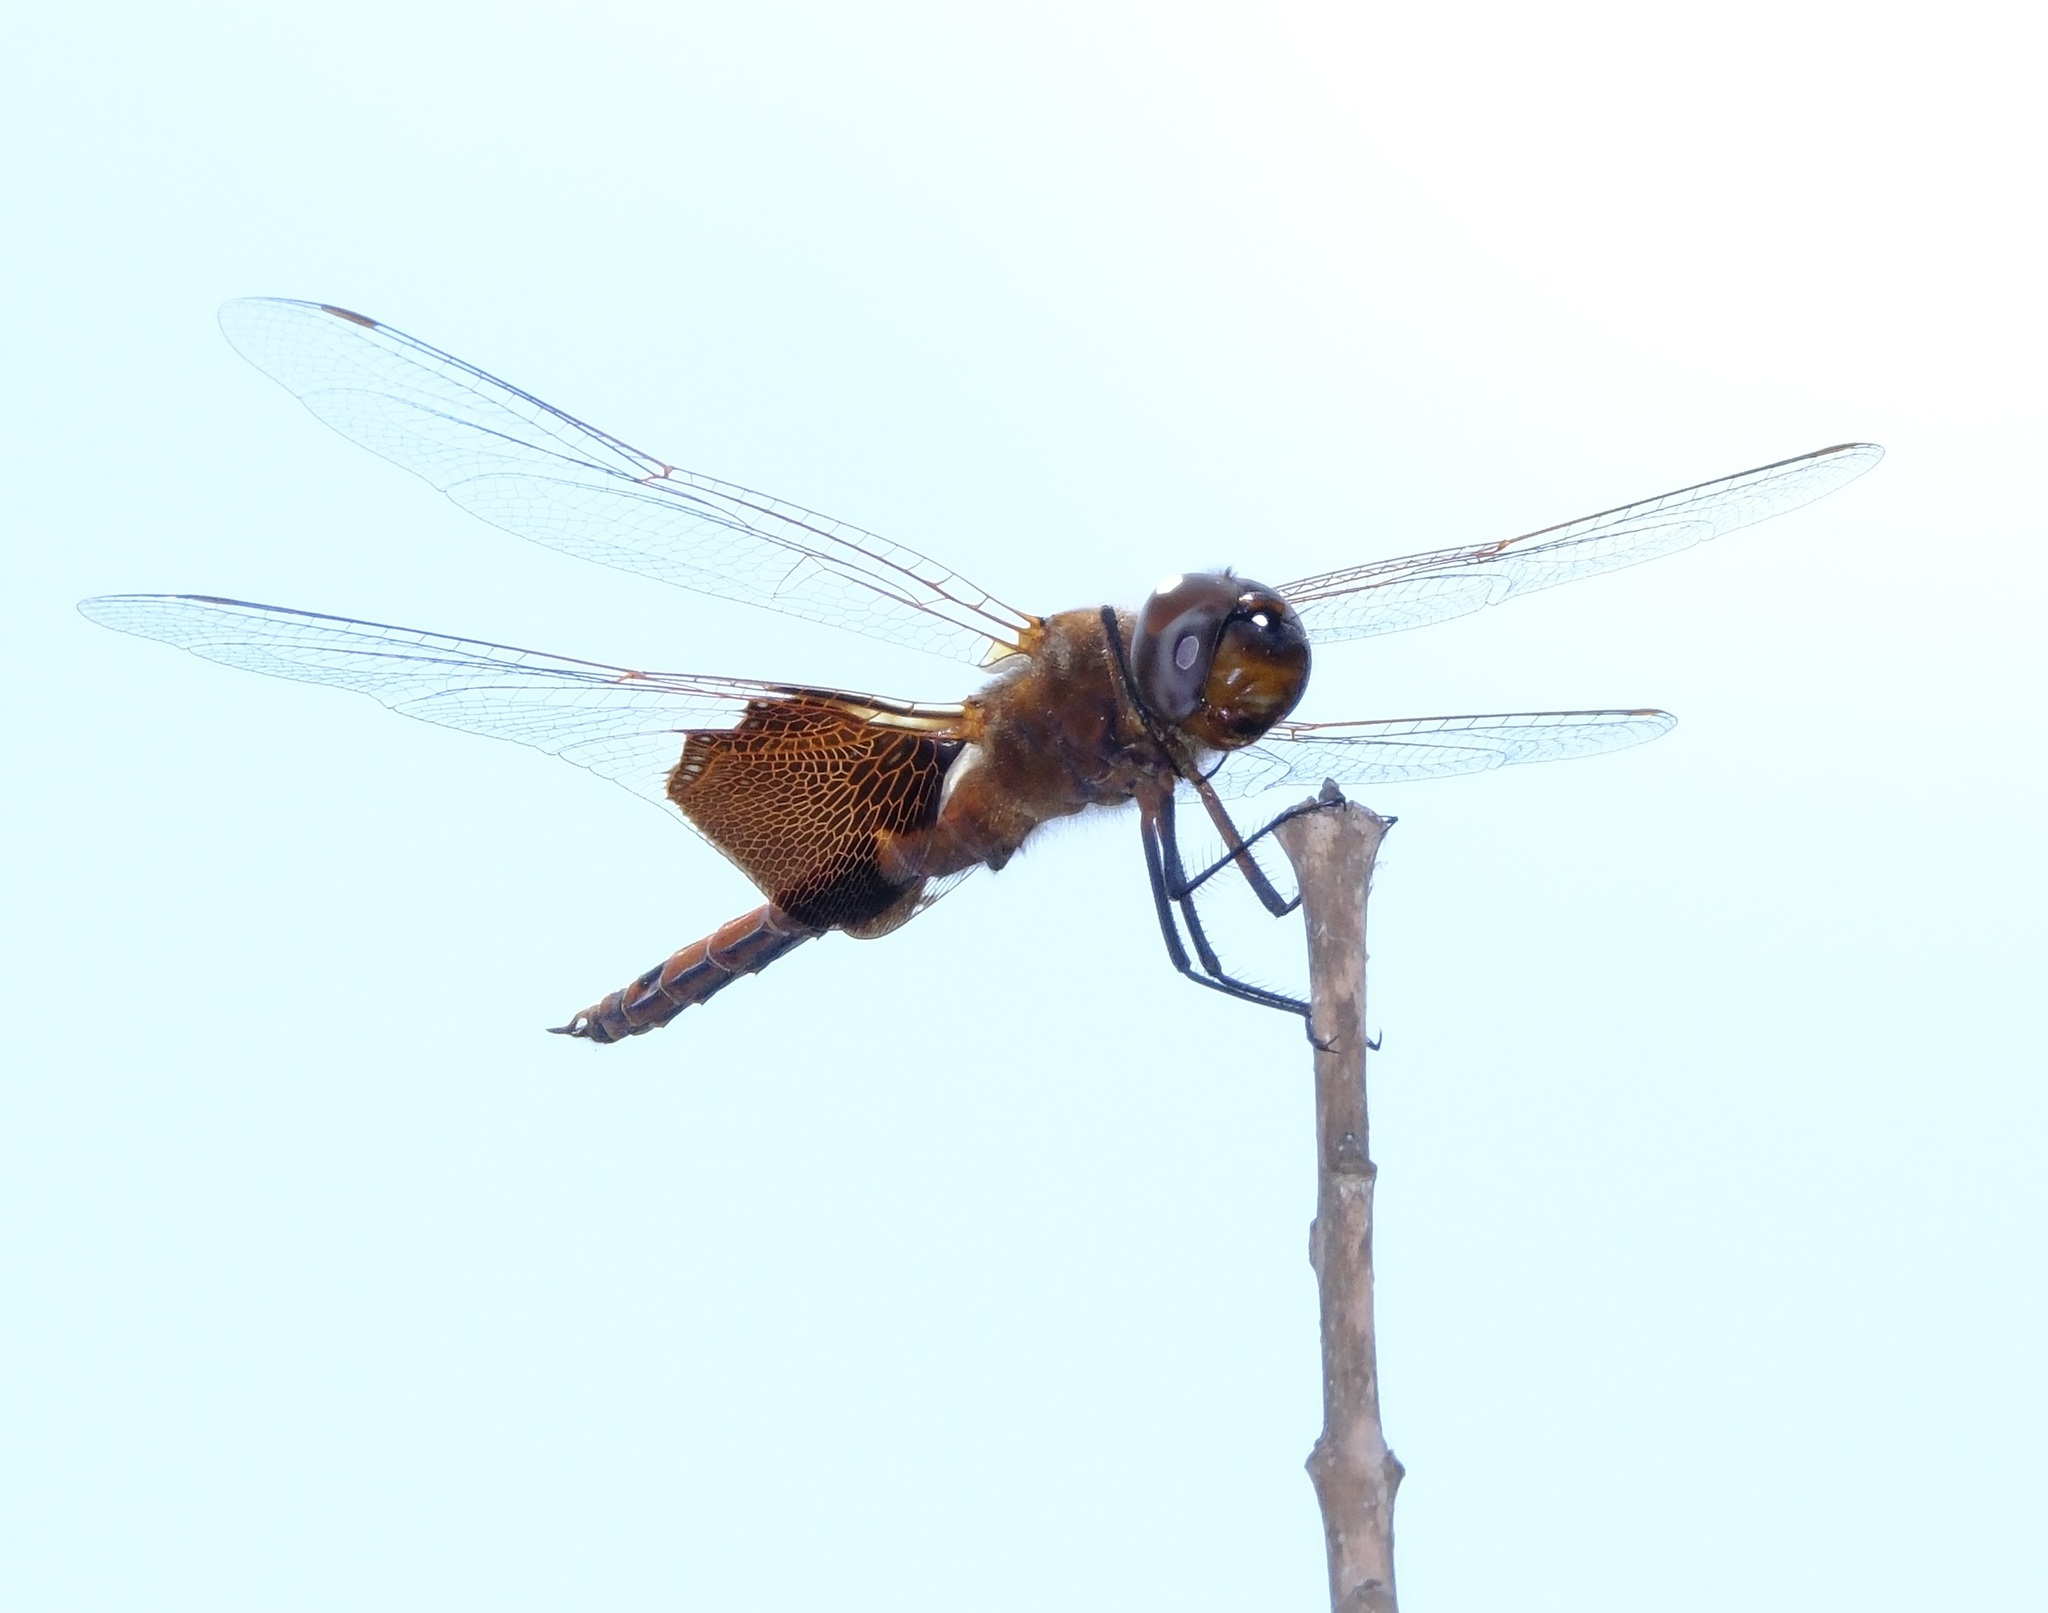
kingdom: Animalia
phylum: Arthropoda
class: Insecta
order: Odonata
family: Libellulidae
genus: Tramea
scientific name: Tramea carolina
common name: Carolina saddlebags
